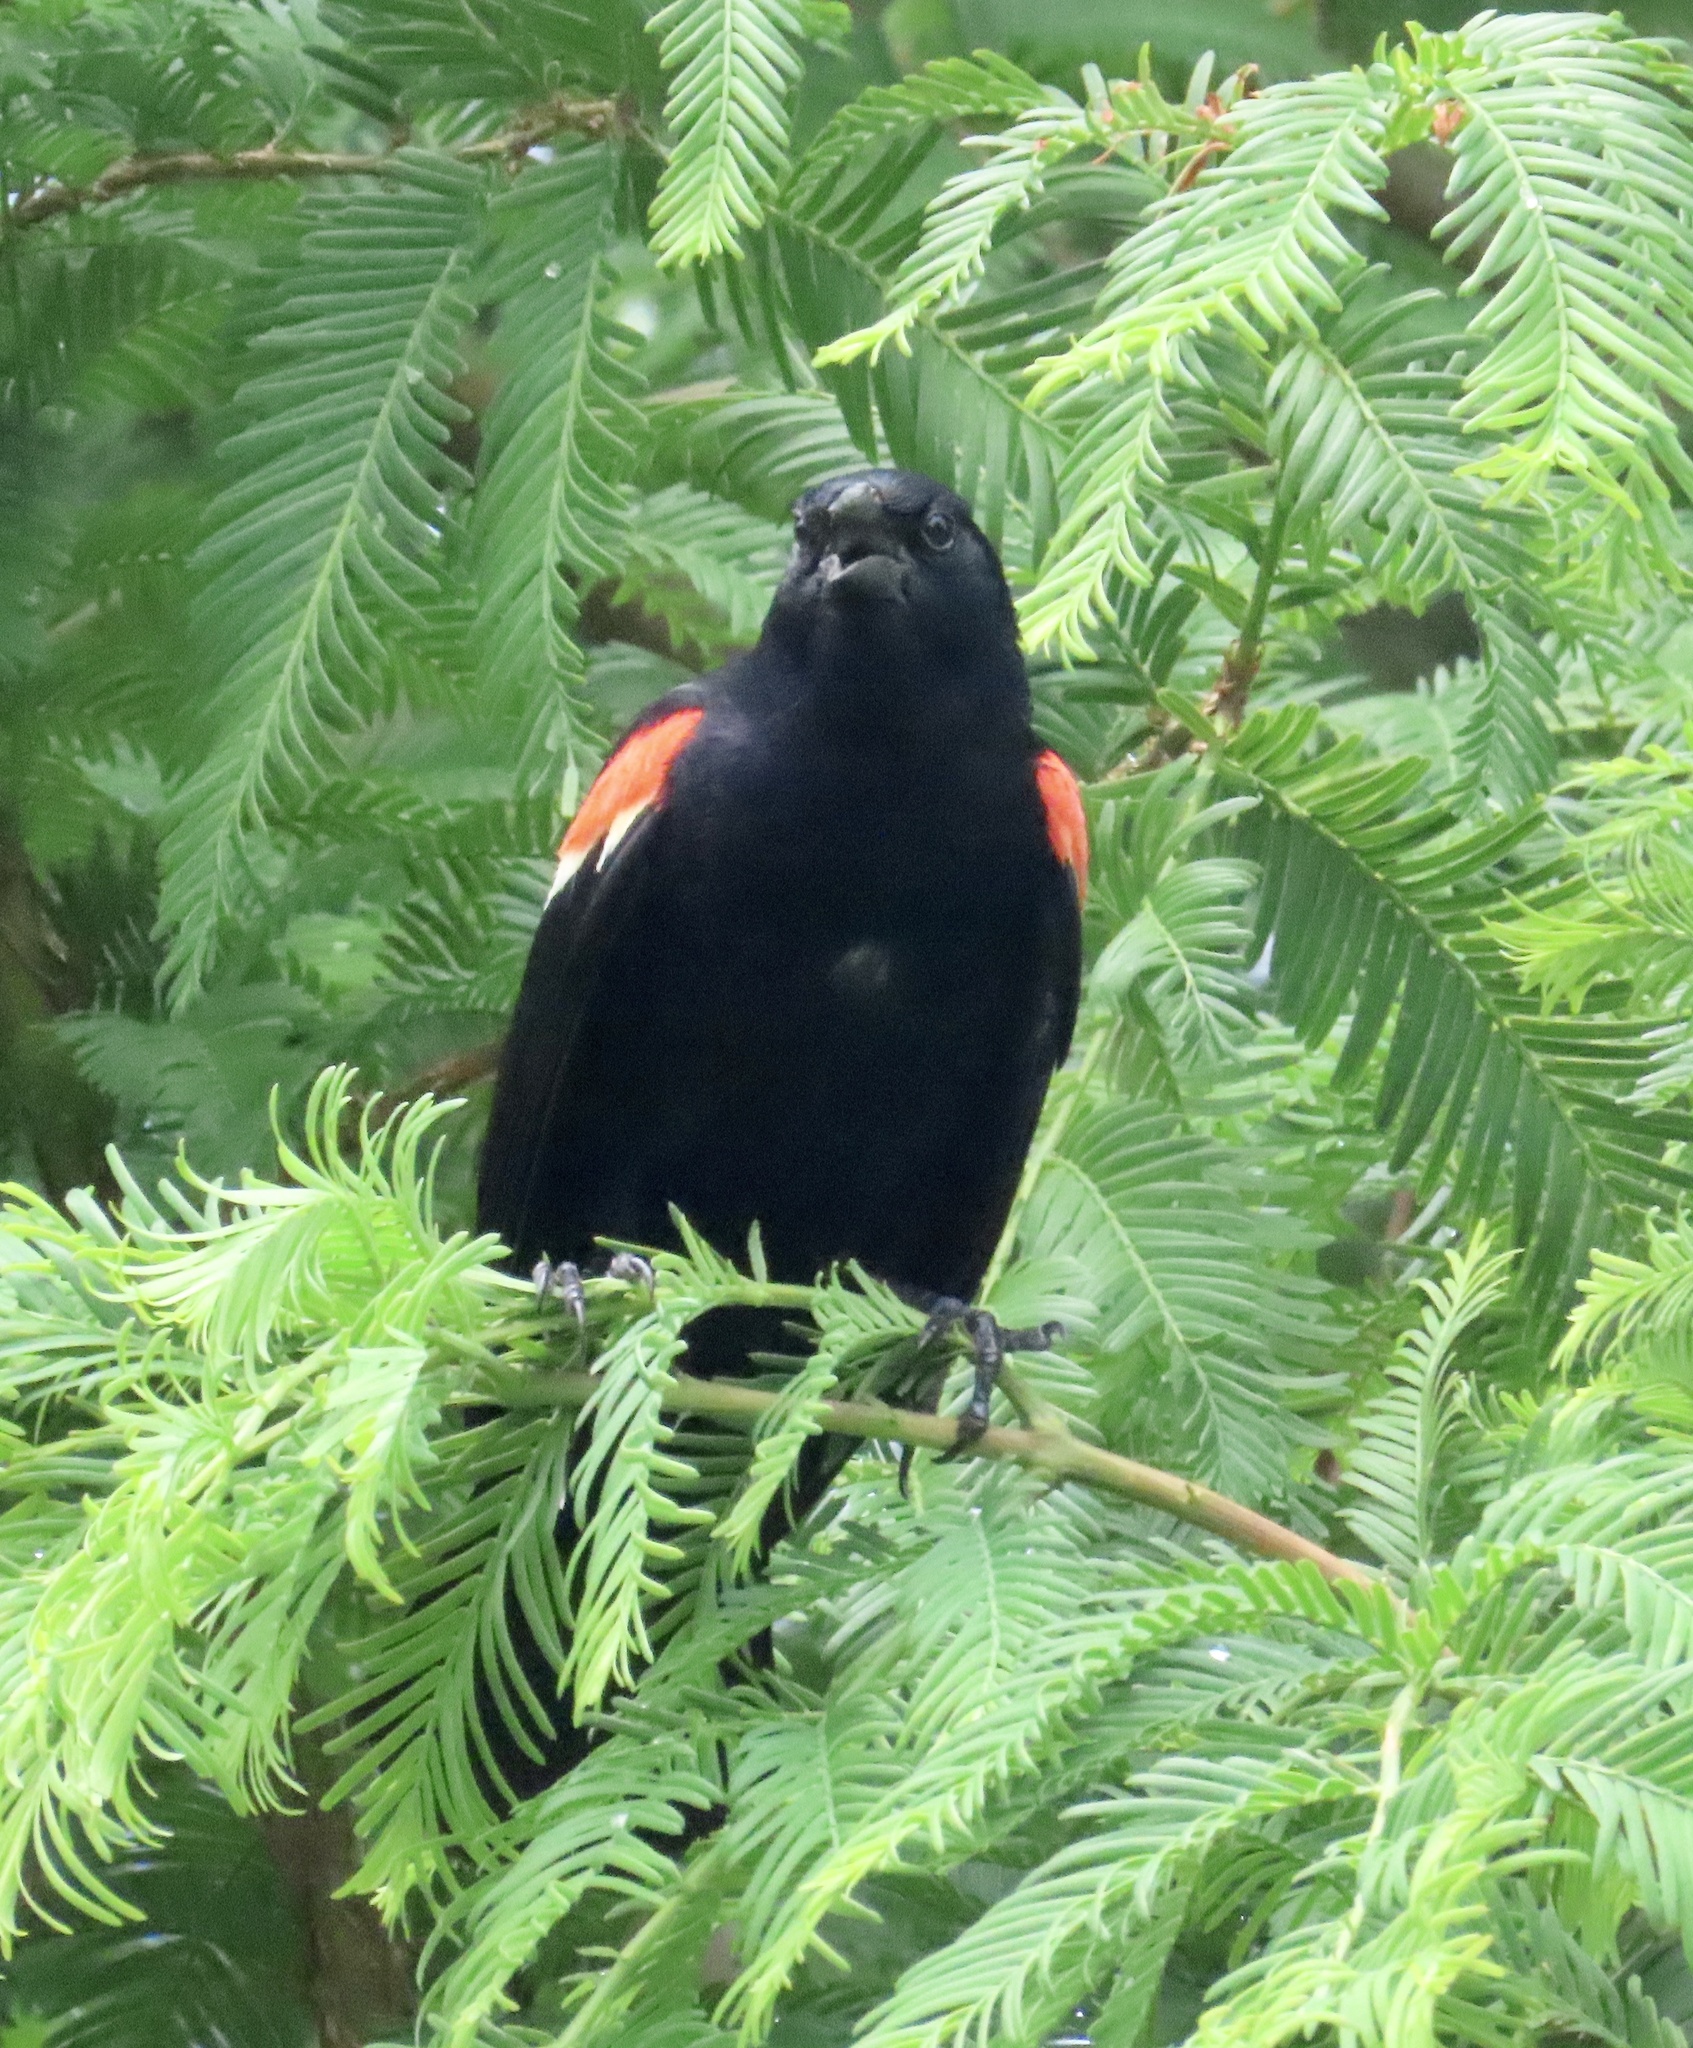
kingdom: Animalia
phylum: Chordata
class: Aves
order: Passeriformes
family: Icteridae
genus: Agelaius
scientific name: Agelaius phoeniceus
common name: Red-winged blackbird
